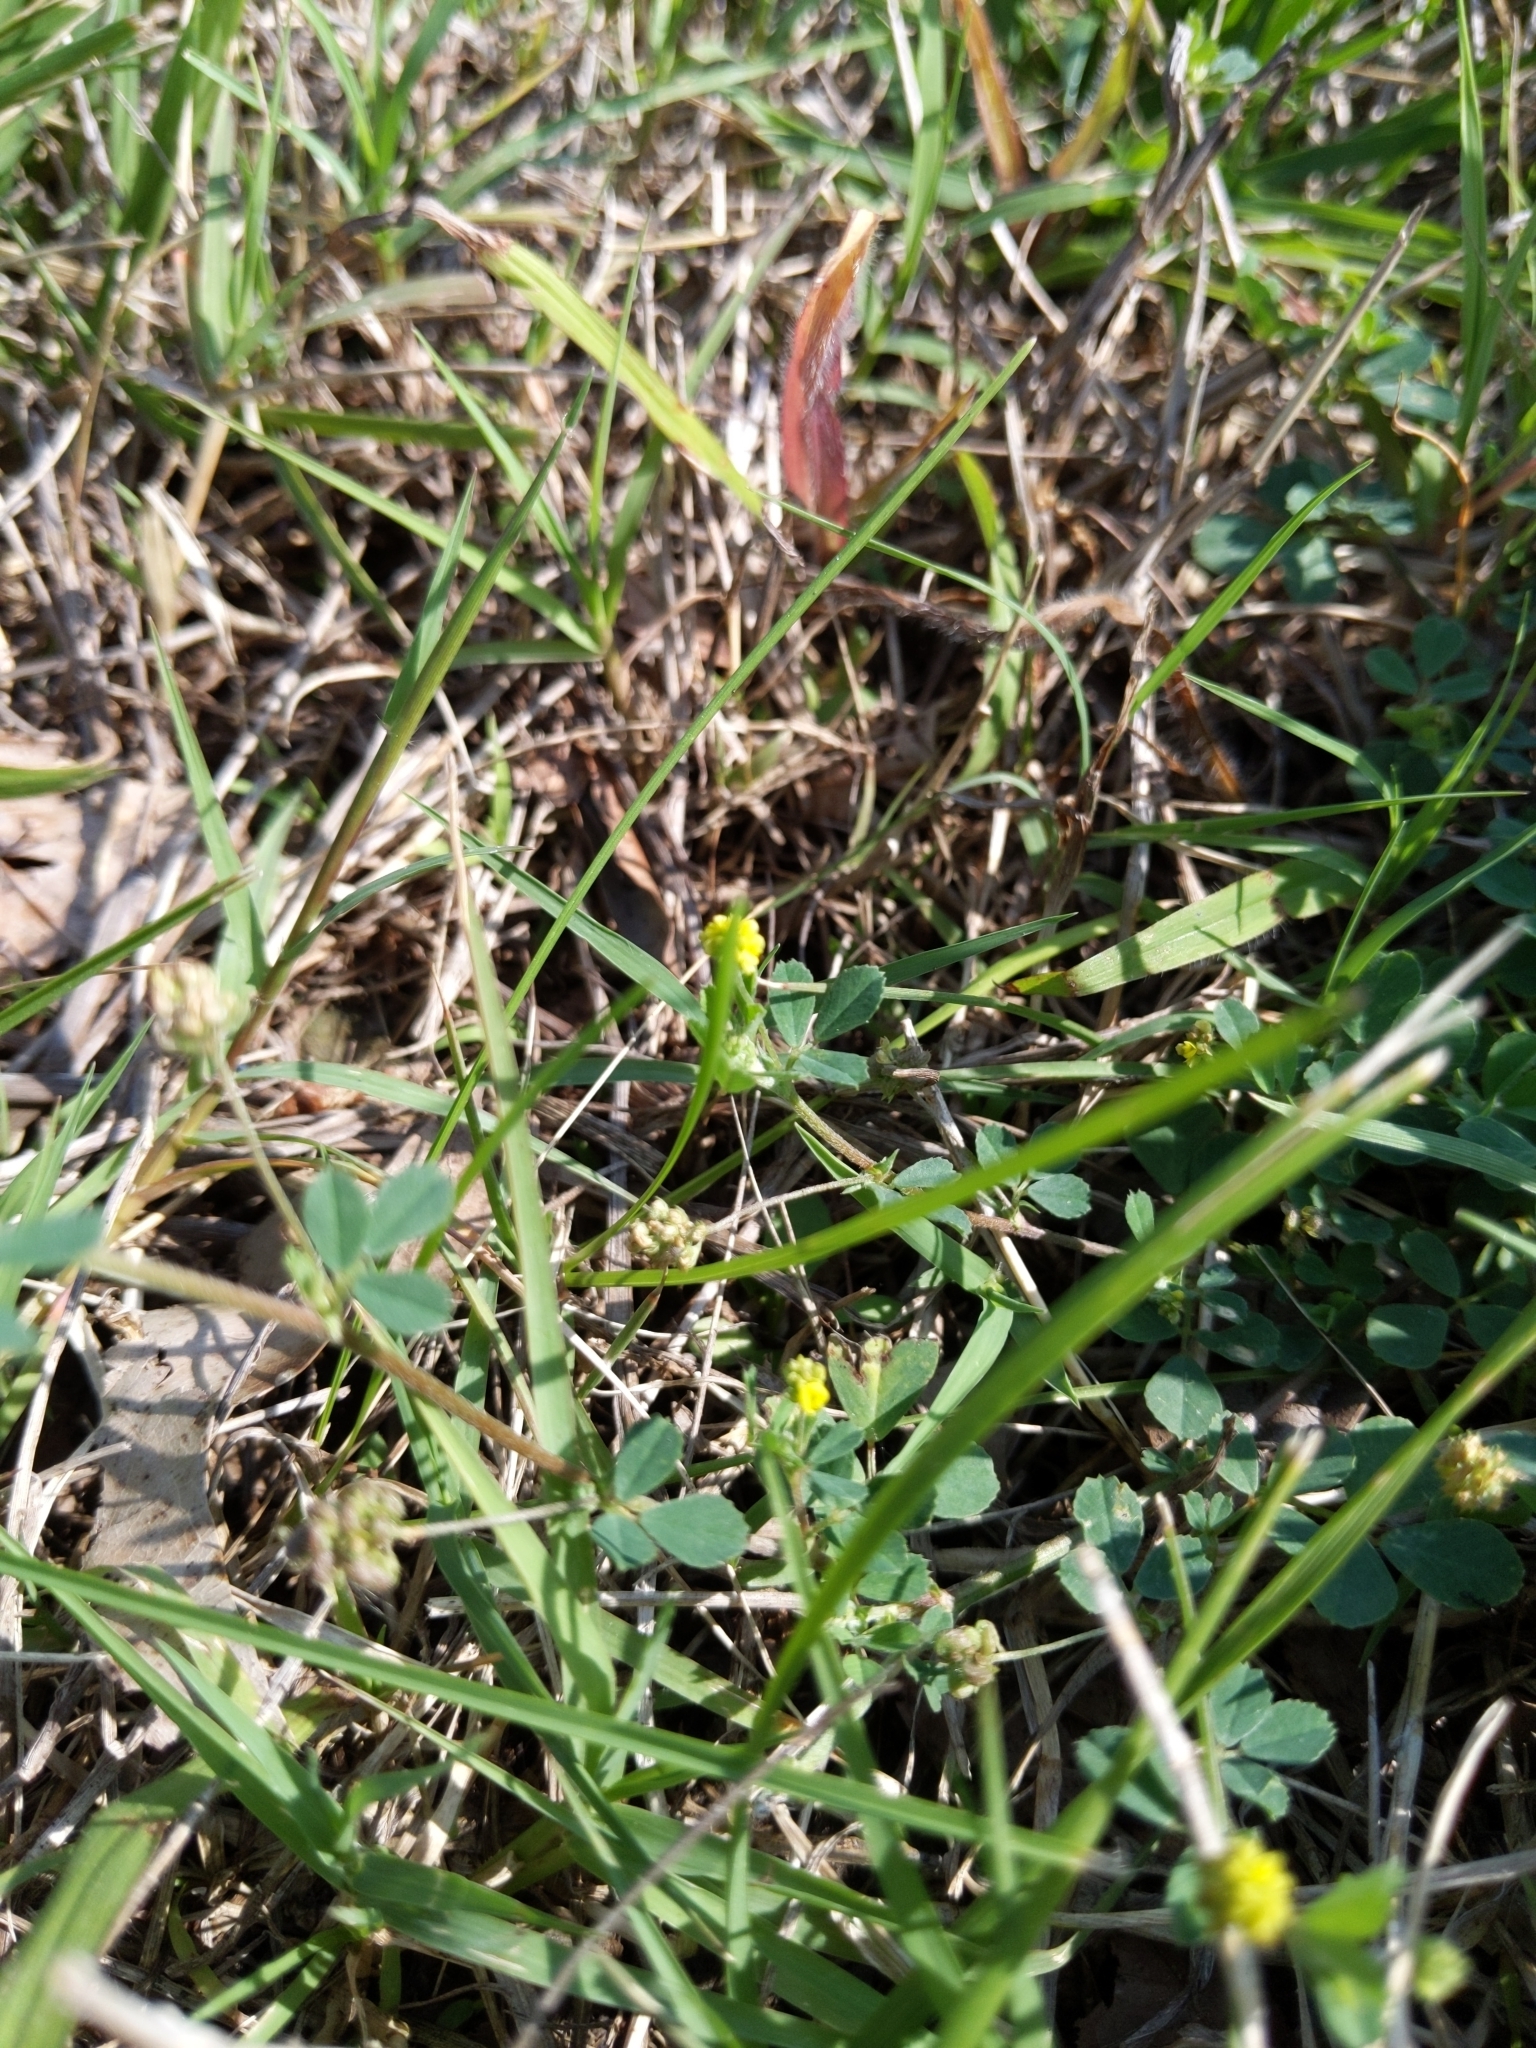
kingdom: Plantae
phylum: Tracheophyta
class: Magnoliopsida
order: Fabales
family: Fabaceae
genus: Medicago
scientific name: Medicago lupulina
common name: Black medick
